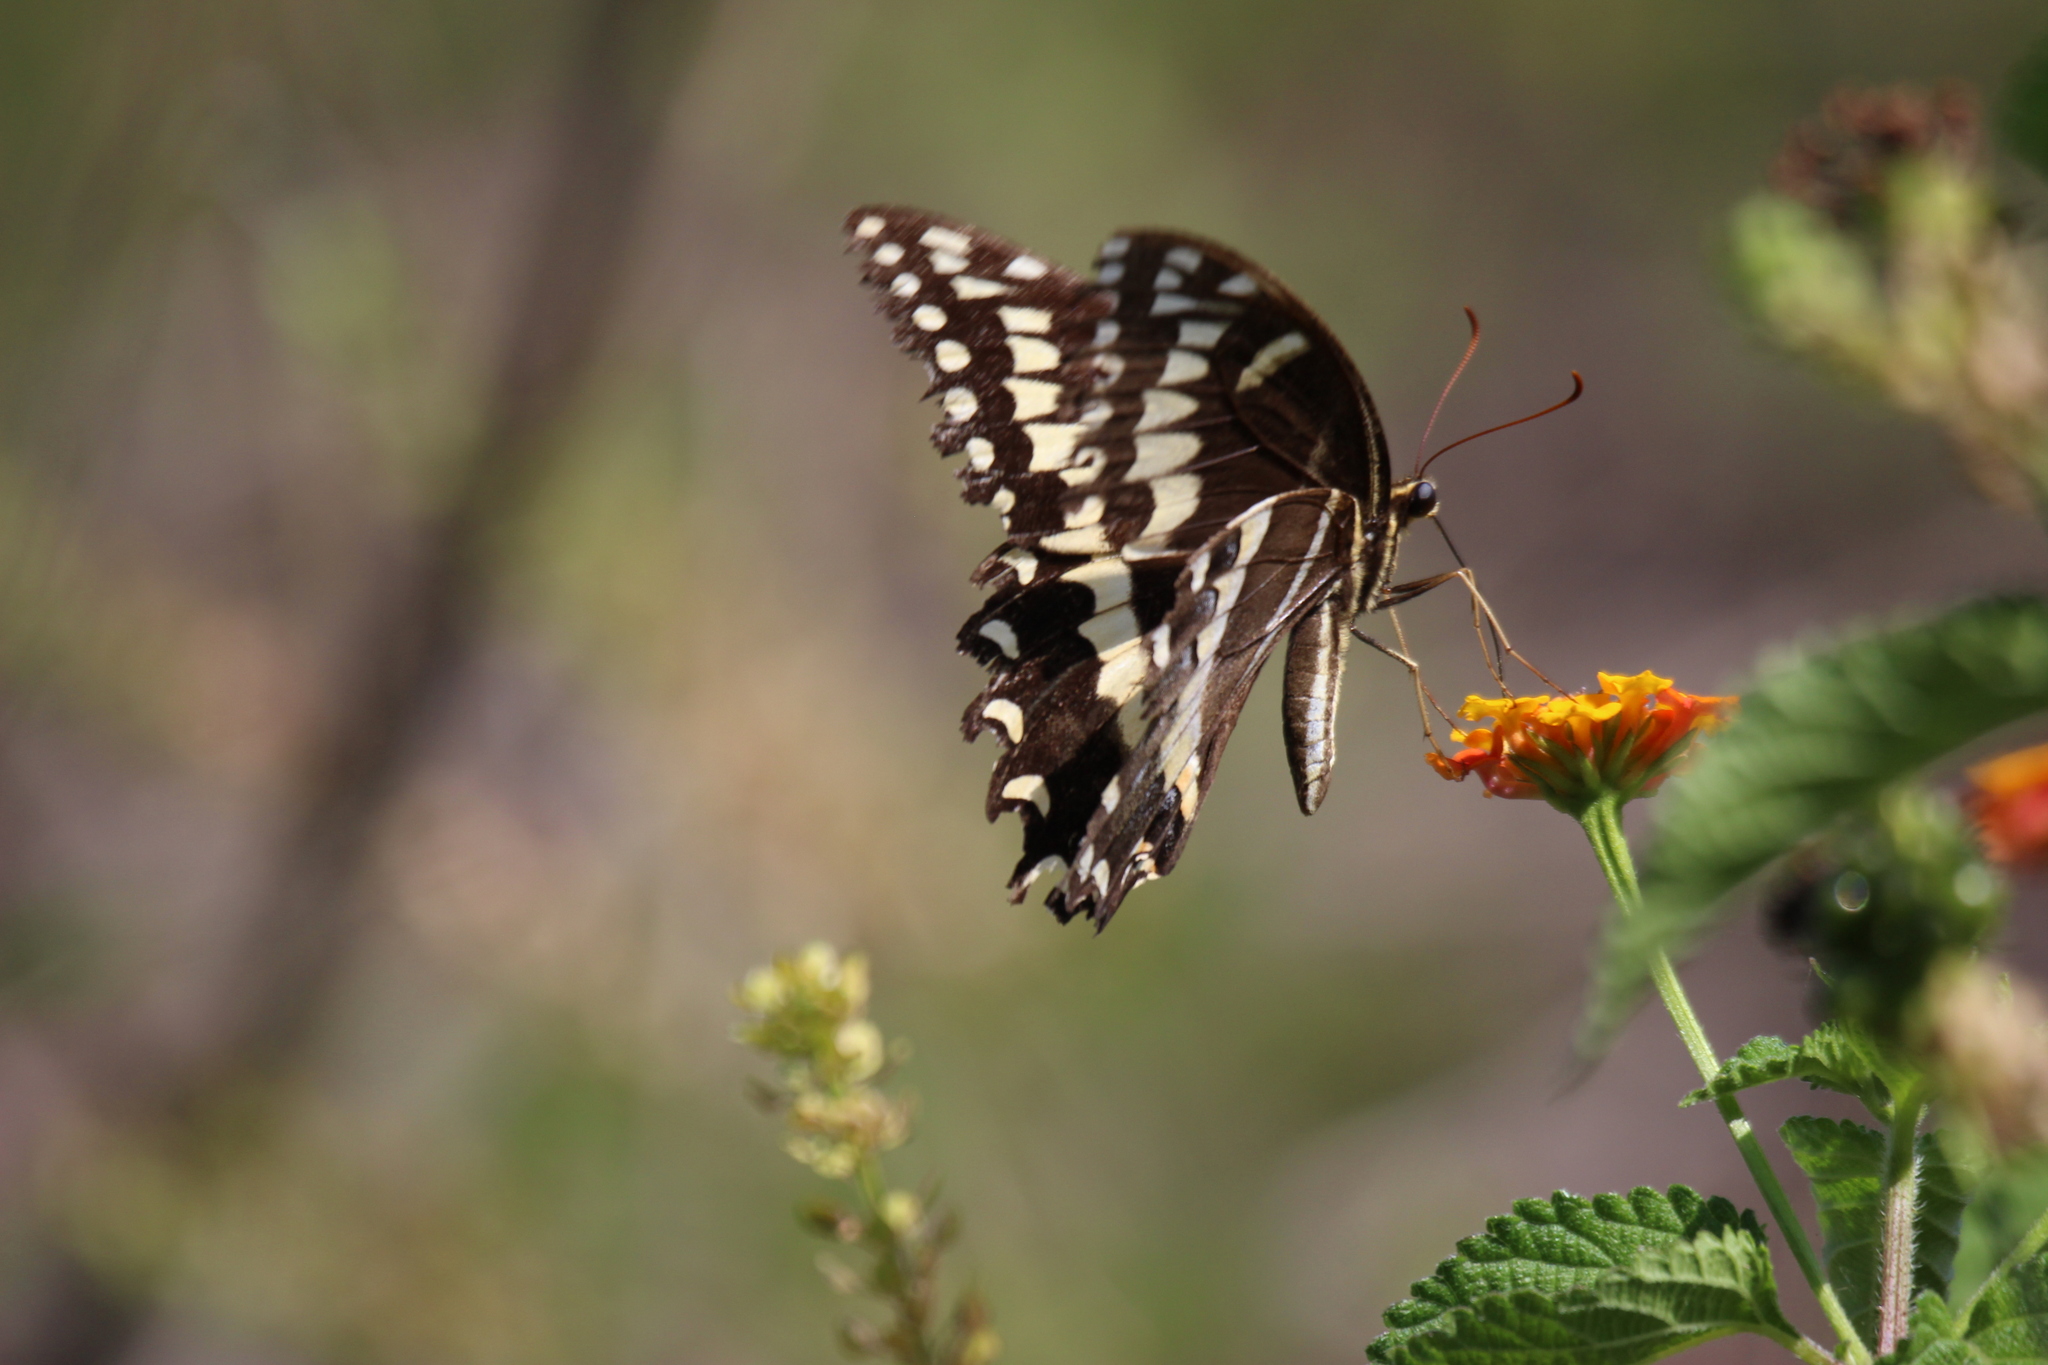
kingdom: Animalia
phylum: Arthropoda
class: Insecta
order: Lepidoptera
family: Papilionidae
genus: Papilio
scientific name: Papilio palamedes
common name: Palamedes swallowtail
